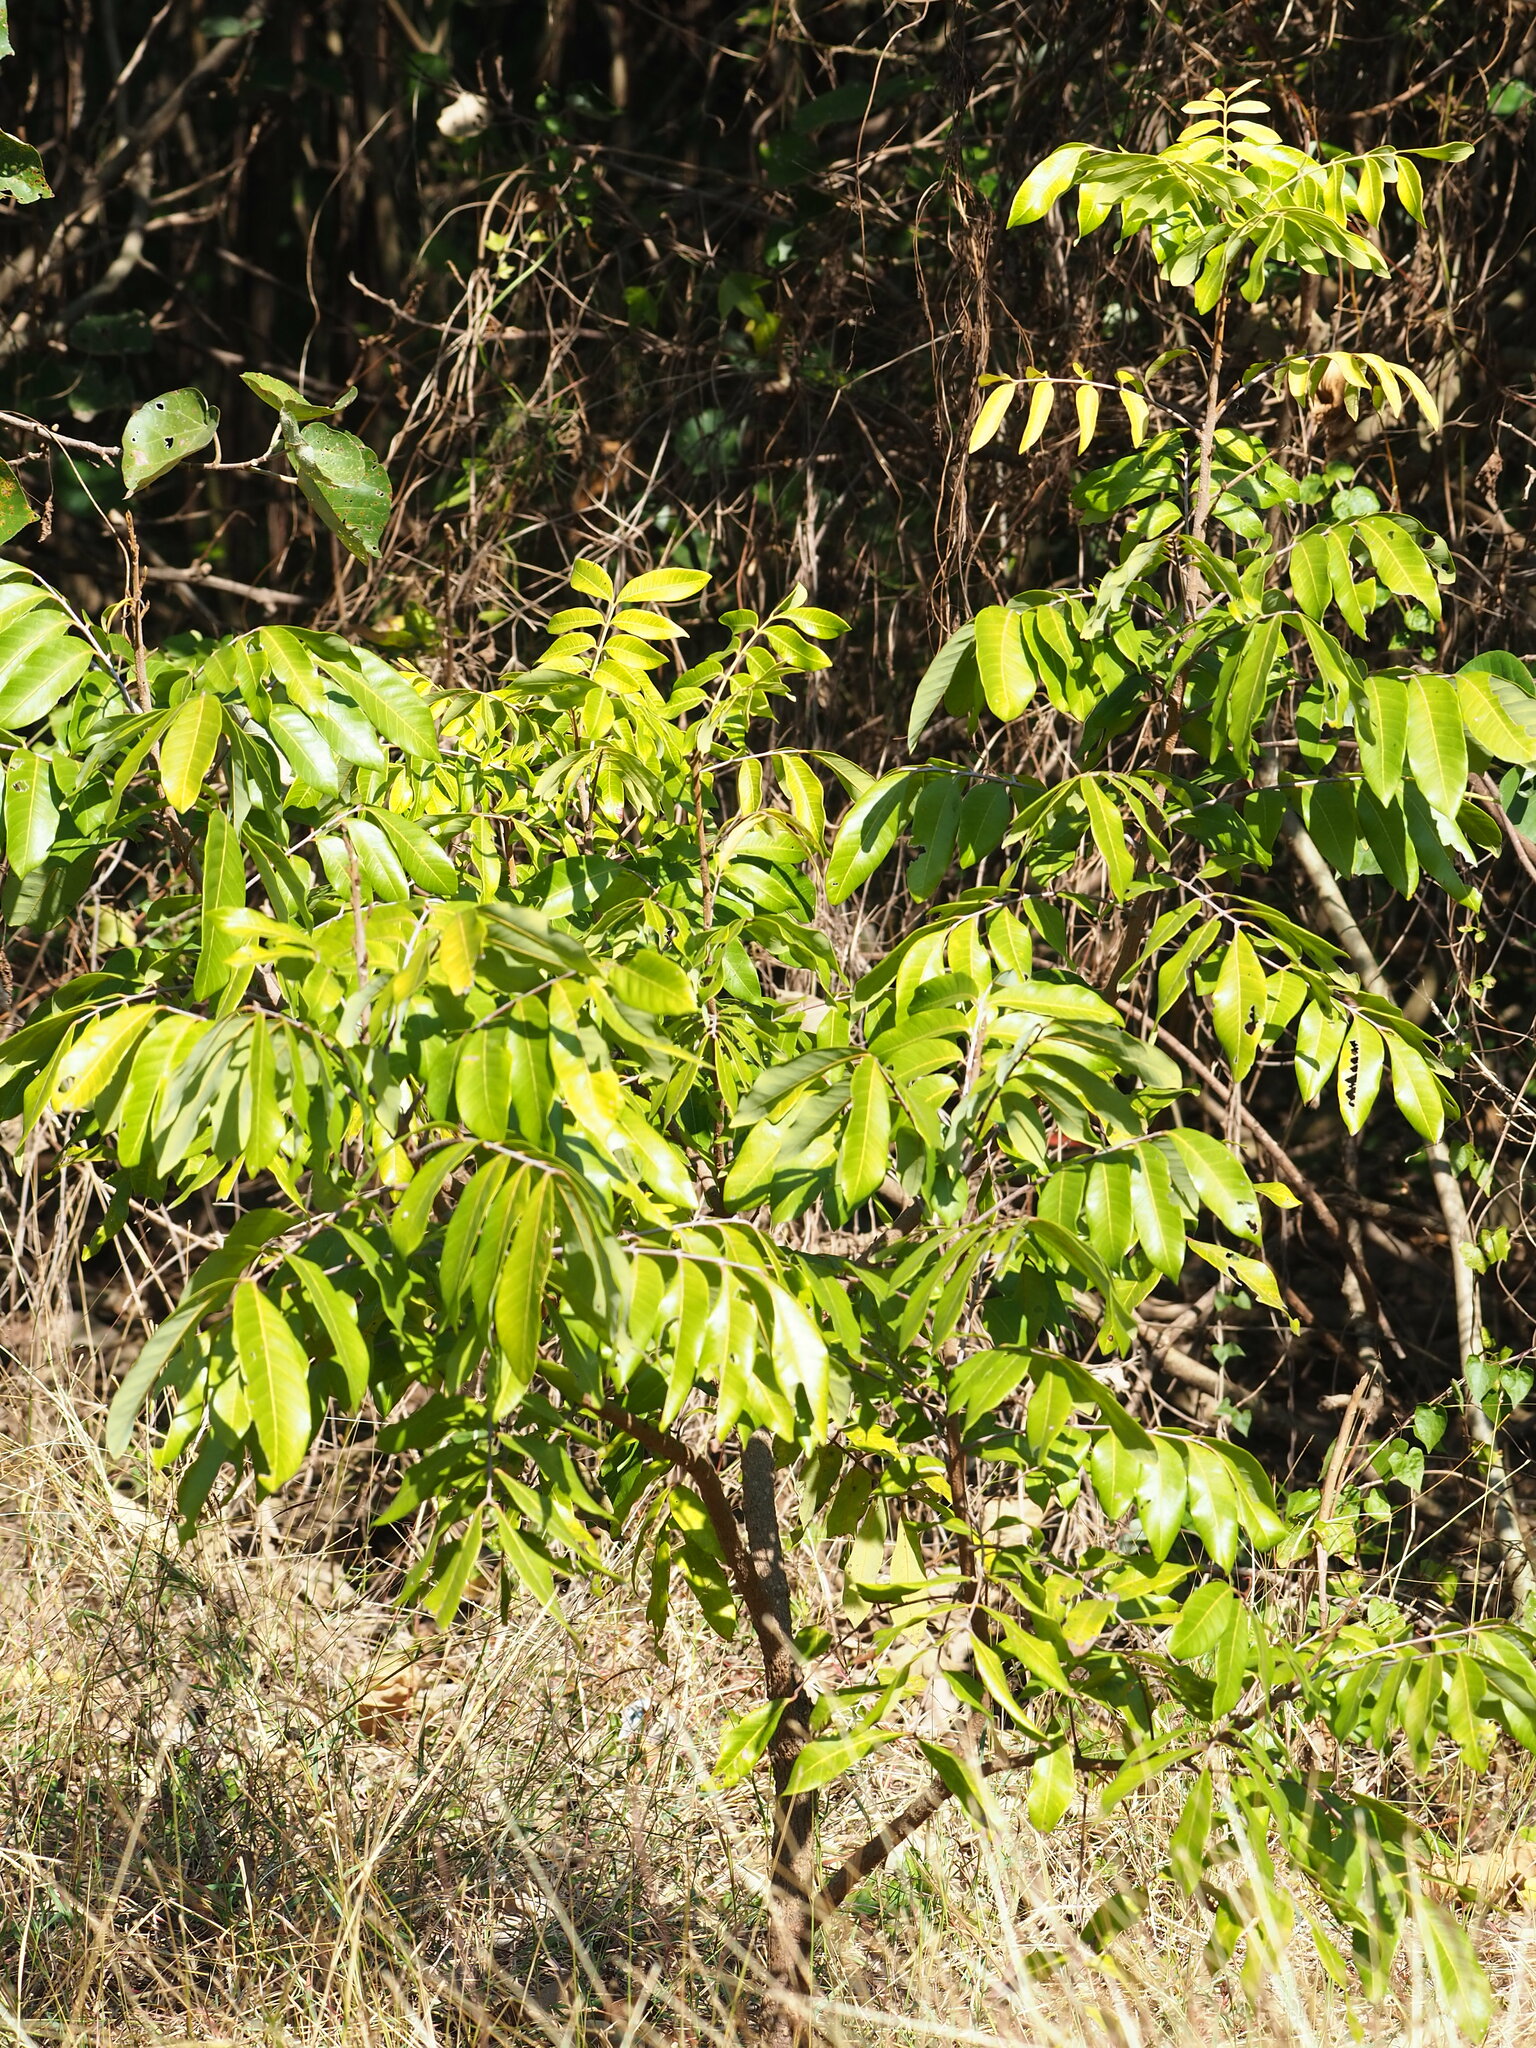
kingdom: Plantae
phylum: Tracheophyta
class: Magnoliopsida
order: Sapindales
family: Sapindaceae
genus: Dimocarpus
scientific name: Dimocarpus longan
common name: Longan
